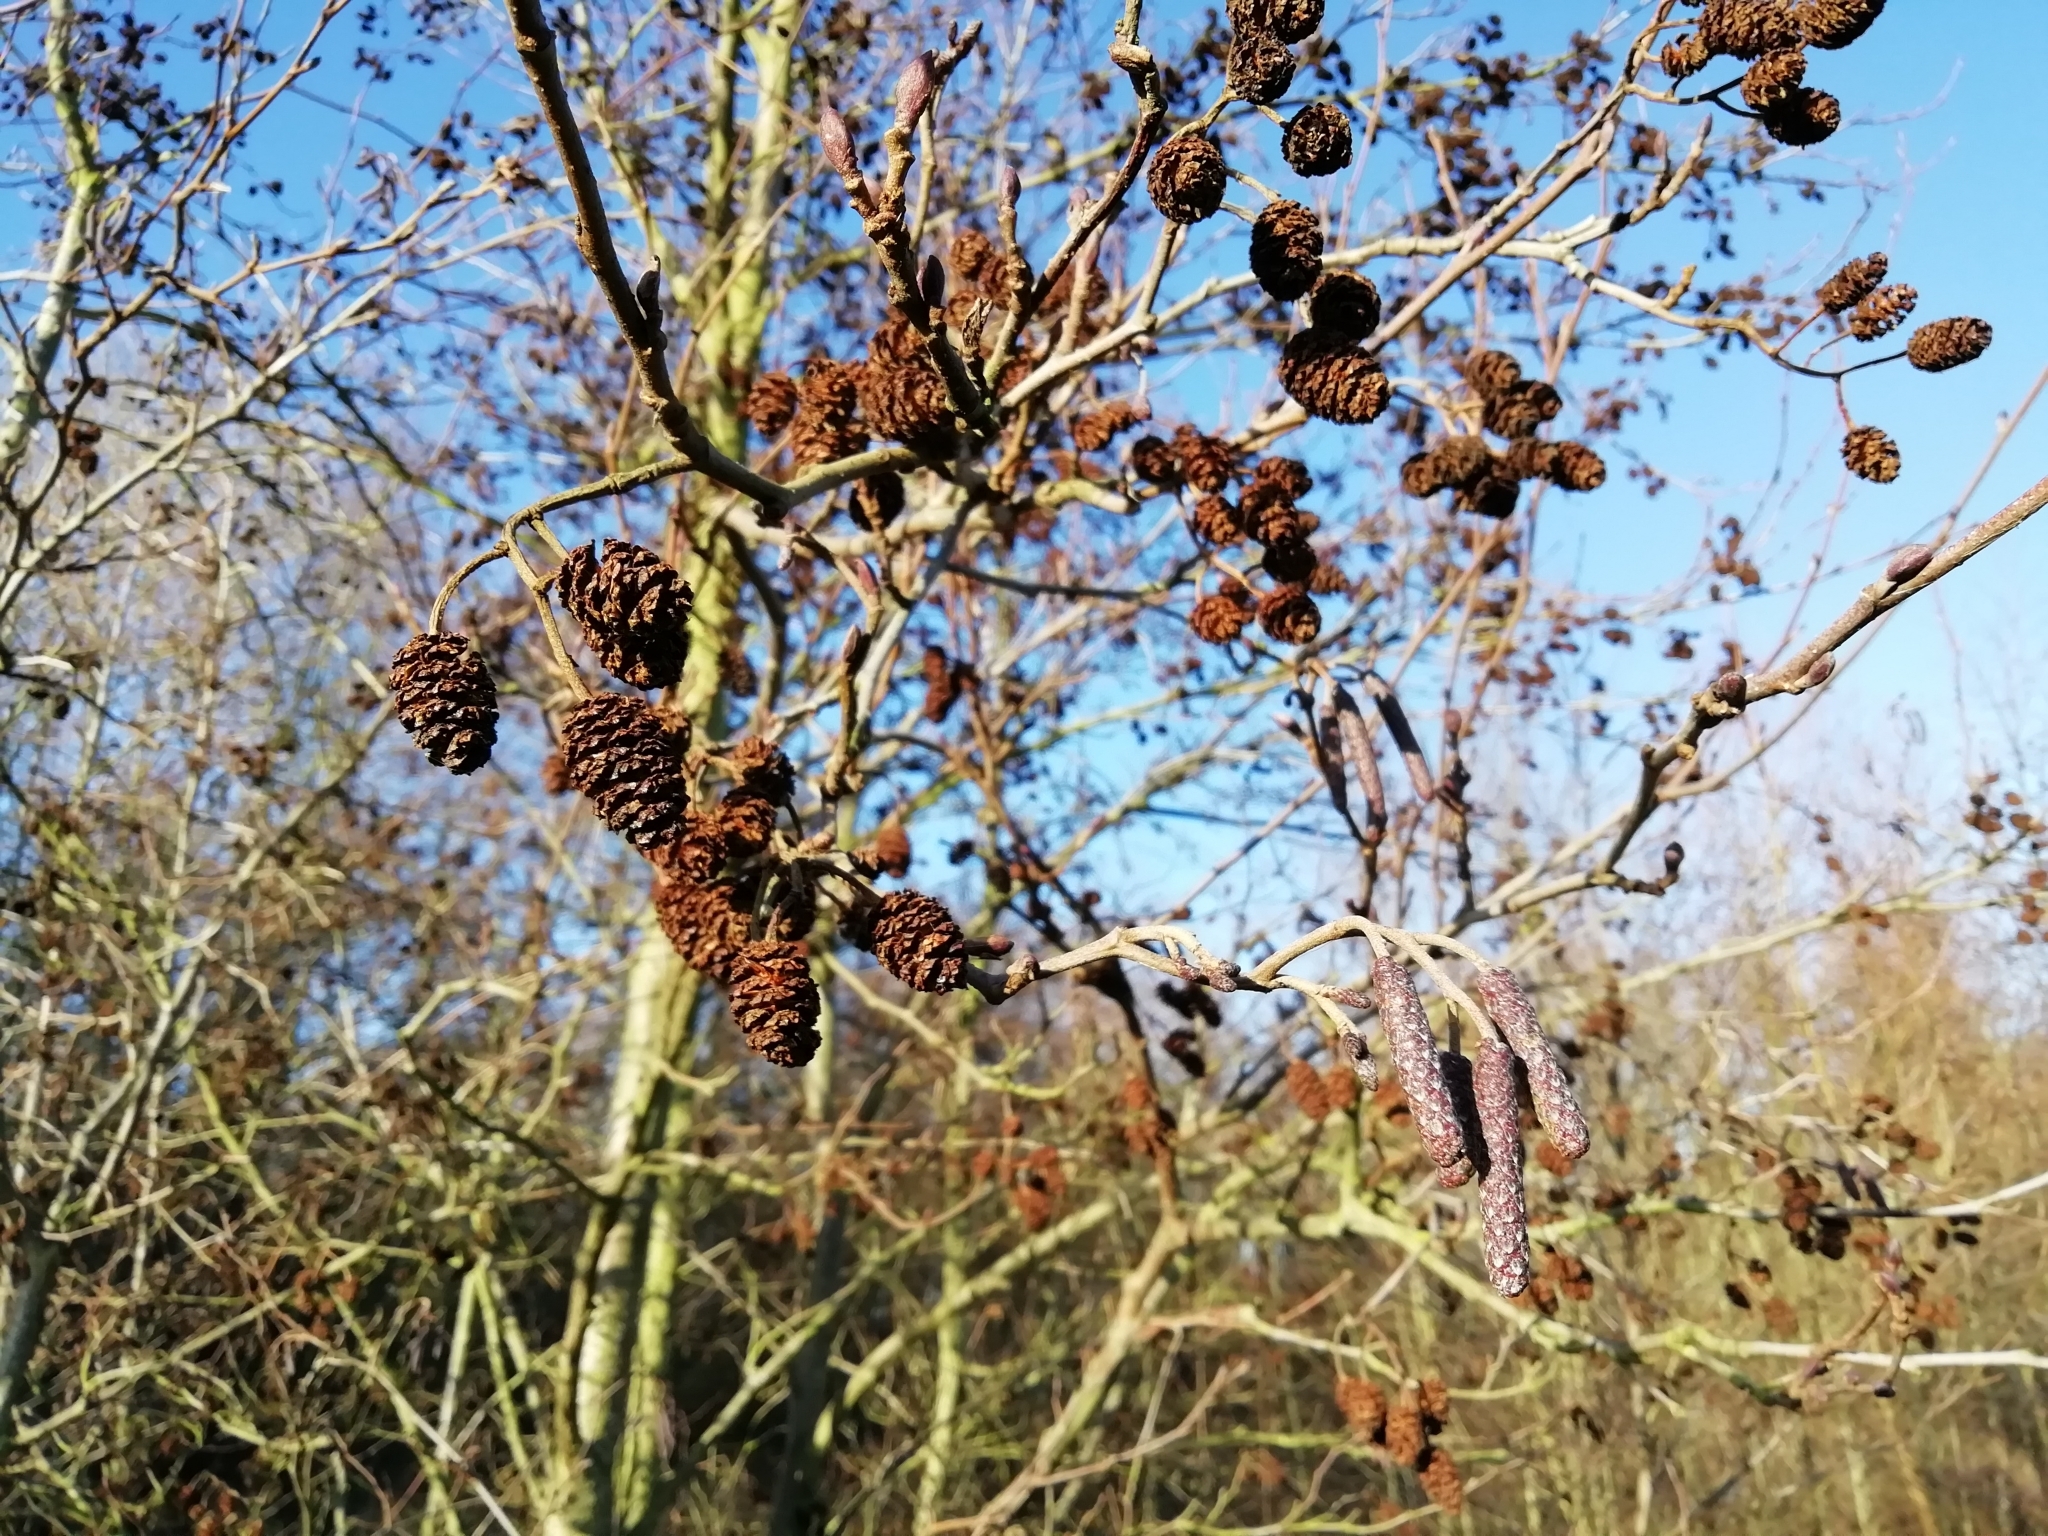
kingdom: Plantae
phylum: Tracheophyta
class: Magnoliopsida
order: Fagales
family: Betulaceae
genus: Alnus
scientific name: Alnus glutinosa
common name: Black alder
